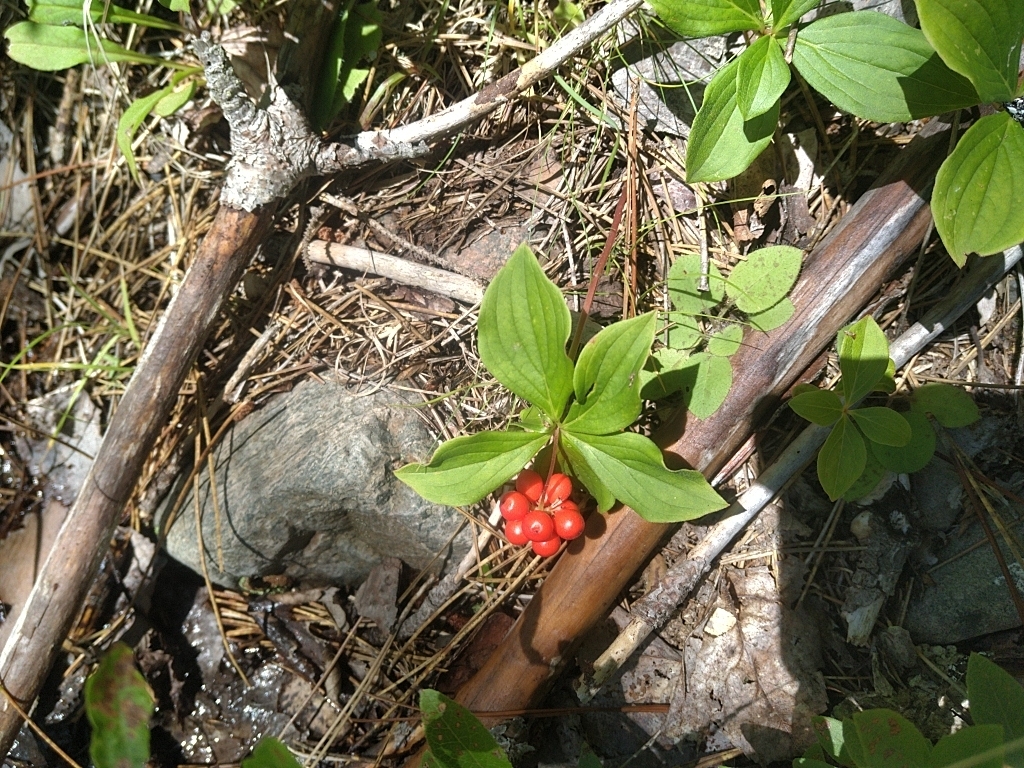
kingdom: Plantae
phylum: Tracheophyta
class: Magnoliopsida
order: Cornales
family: Cornaceae
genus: Cornus
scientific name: Cornus canadensis
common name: Creeping dogwood
